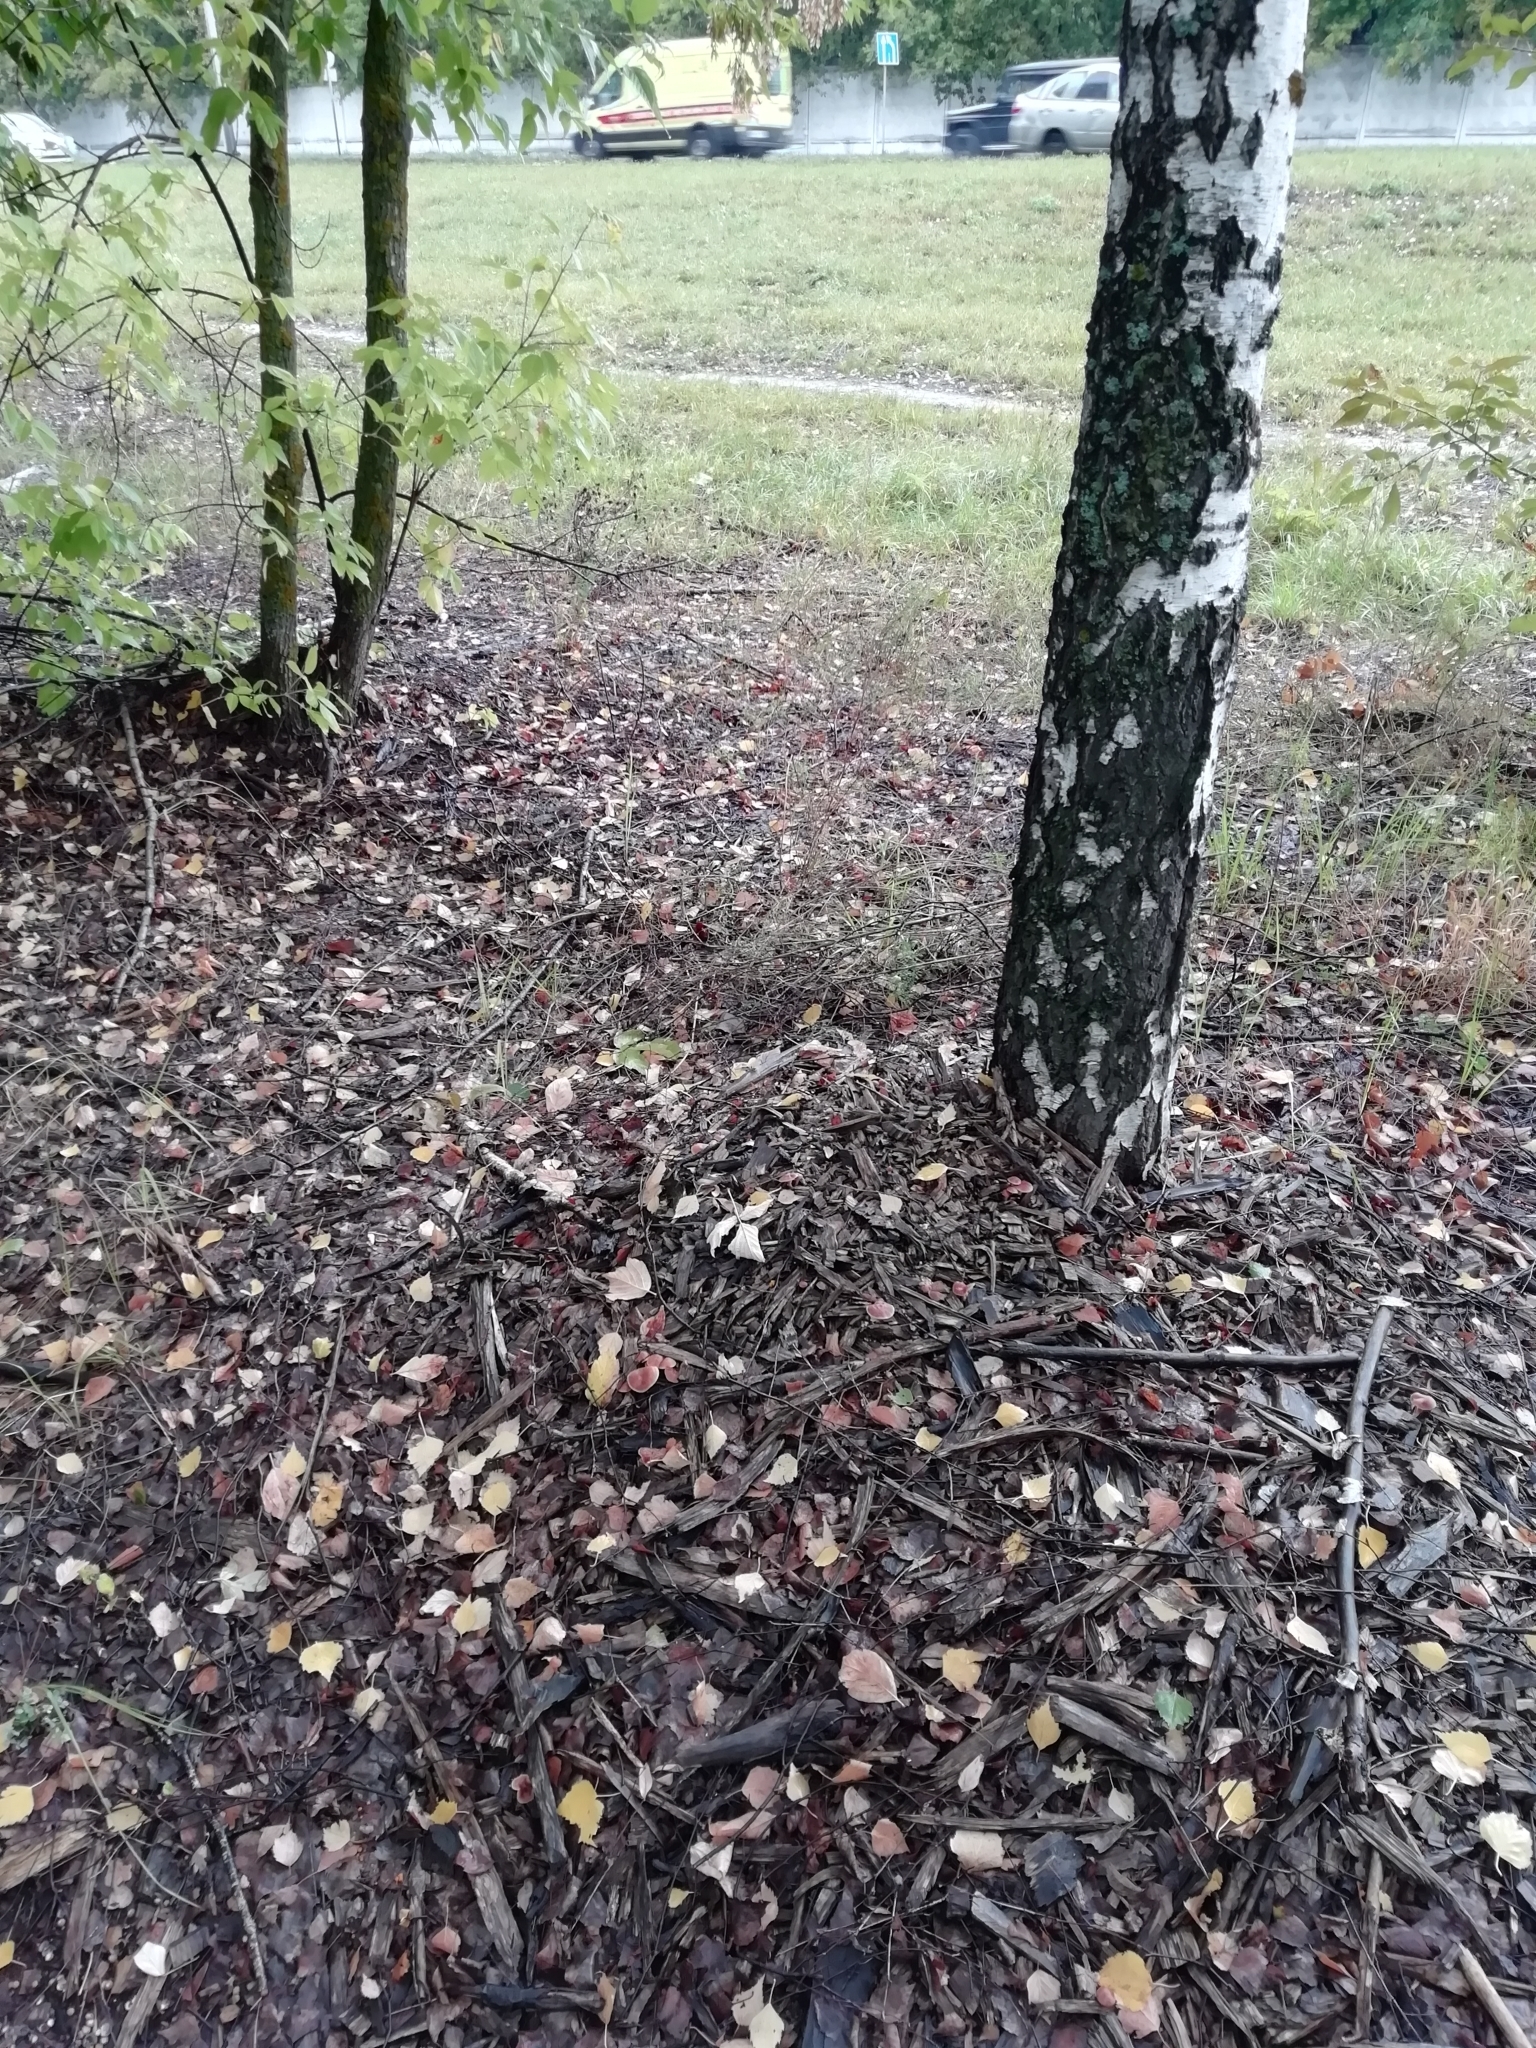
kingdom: Fungi
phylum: Basidiomycota
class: Agaricomycetes
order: Agaricales
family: Tubariaceae
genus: Tubaria
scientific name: Tubaria confragosa
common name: Ringed twiglet
